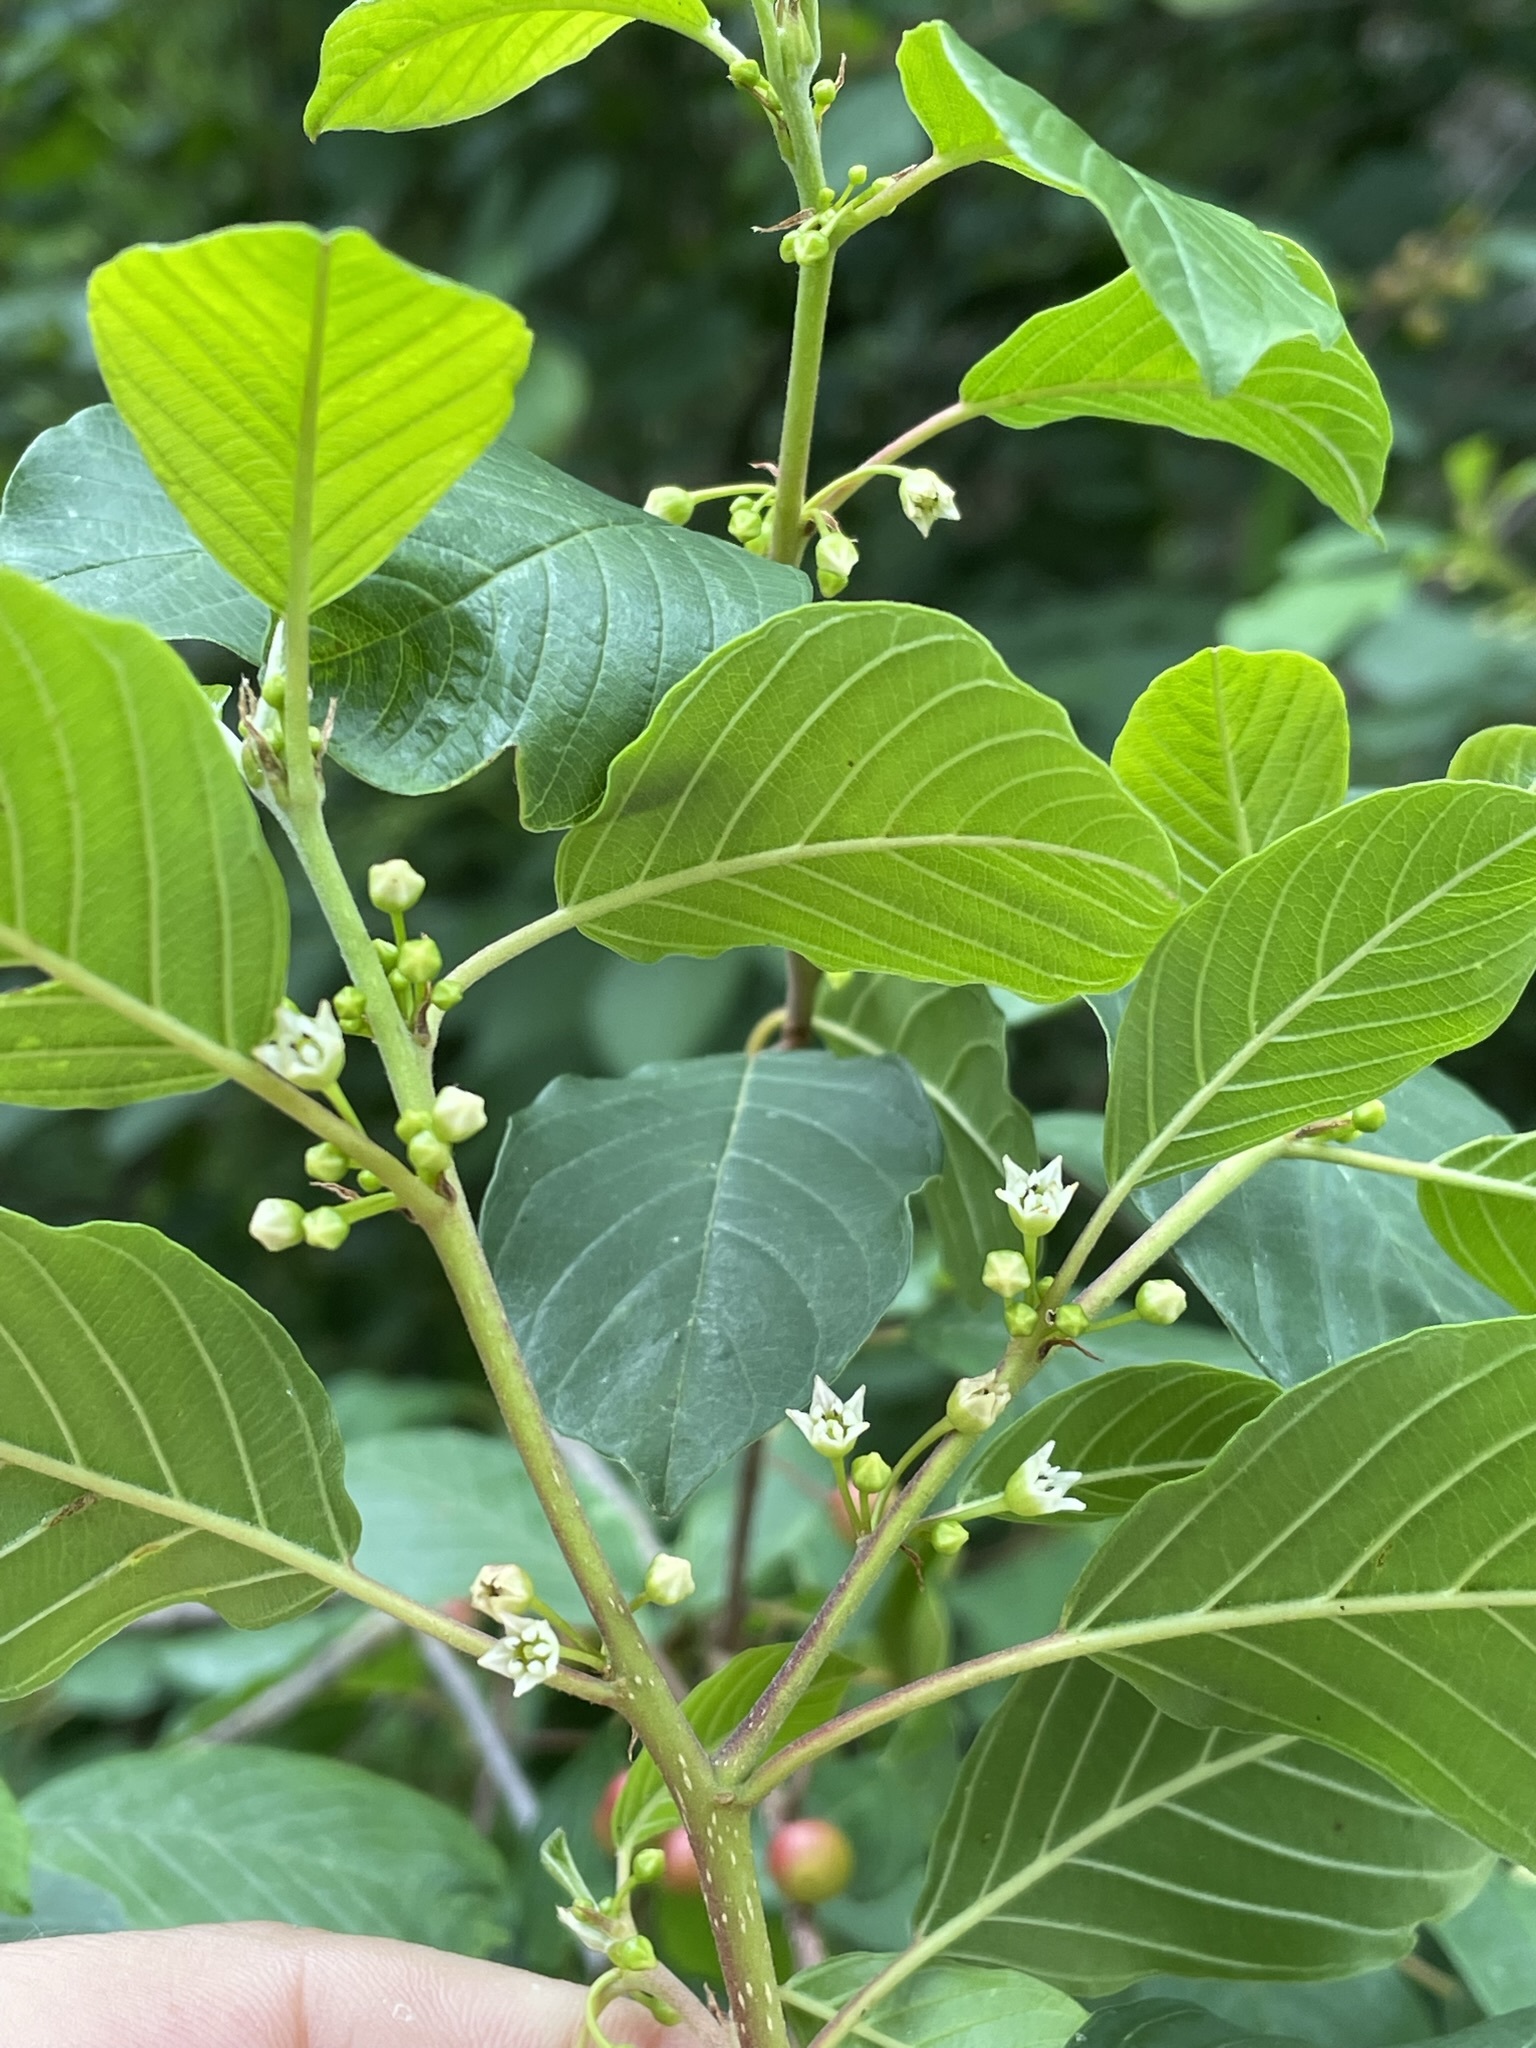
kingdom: Plantae
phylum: Tracheophyta
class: Magnoliopsida
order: Rosales
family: Rhamnaceae
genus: Frangula
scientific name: Frangula alnus
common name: Alder buckthorn
